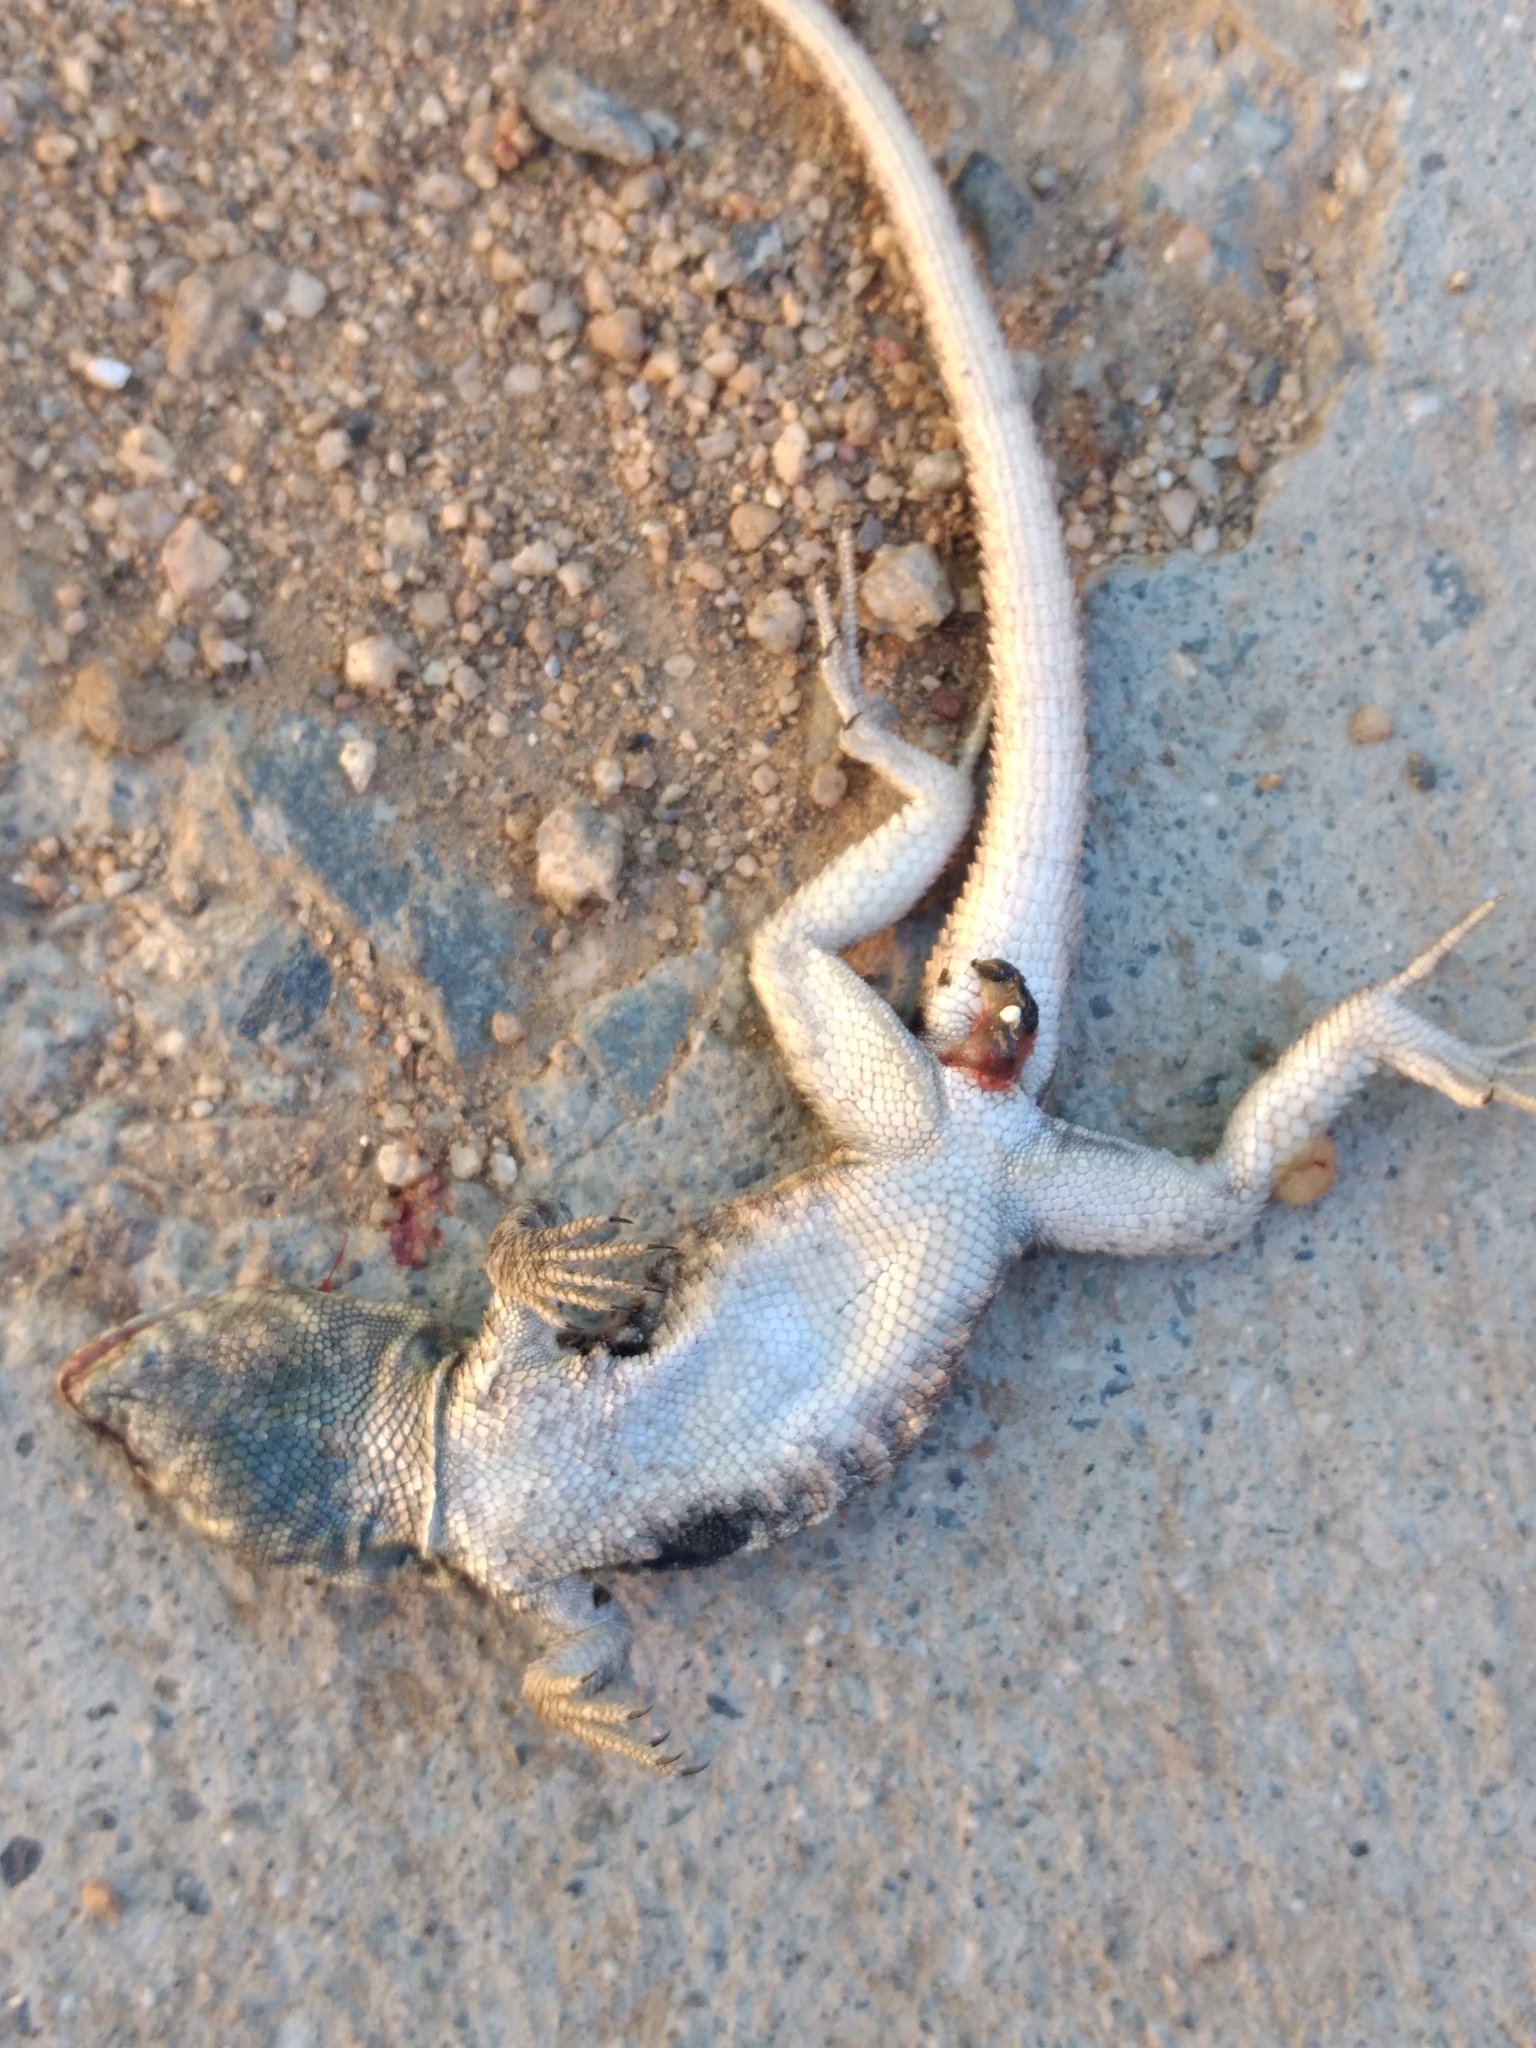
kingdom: Animalia
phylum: Chordata
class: Squamata
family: Phrynosomatidae
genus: Uta
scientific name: Uta stansburiana
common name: Side-blotched lizard
